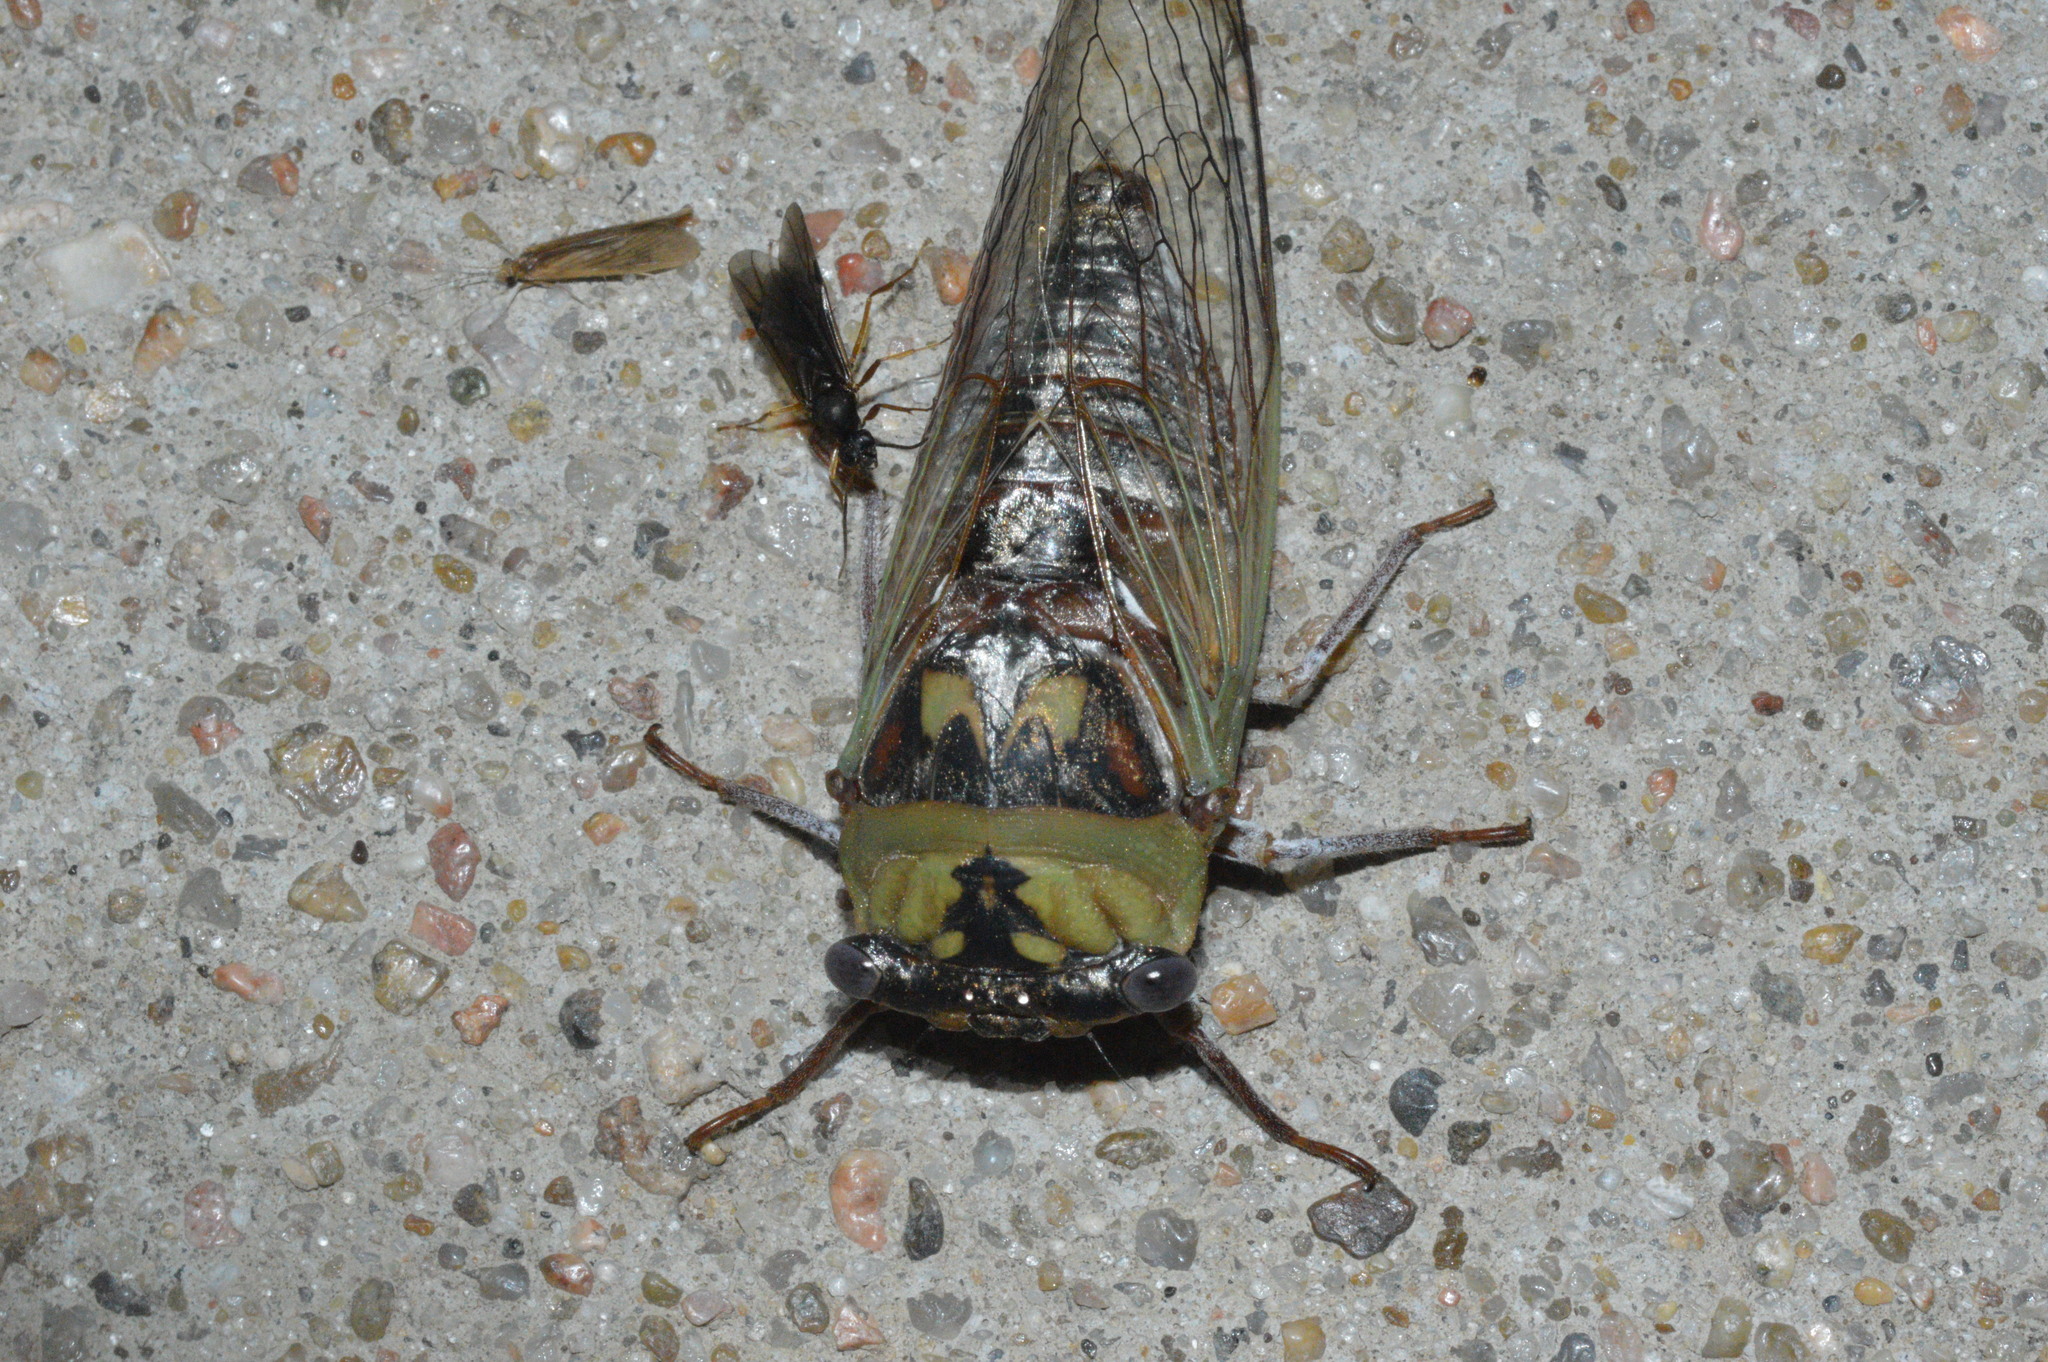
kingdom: Animalia
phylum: Arthropoda
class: Insecta
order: Hemiptera
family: Cicadidae
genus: Megatibicen
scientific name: Megatibicen pronotalis
